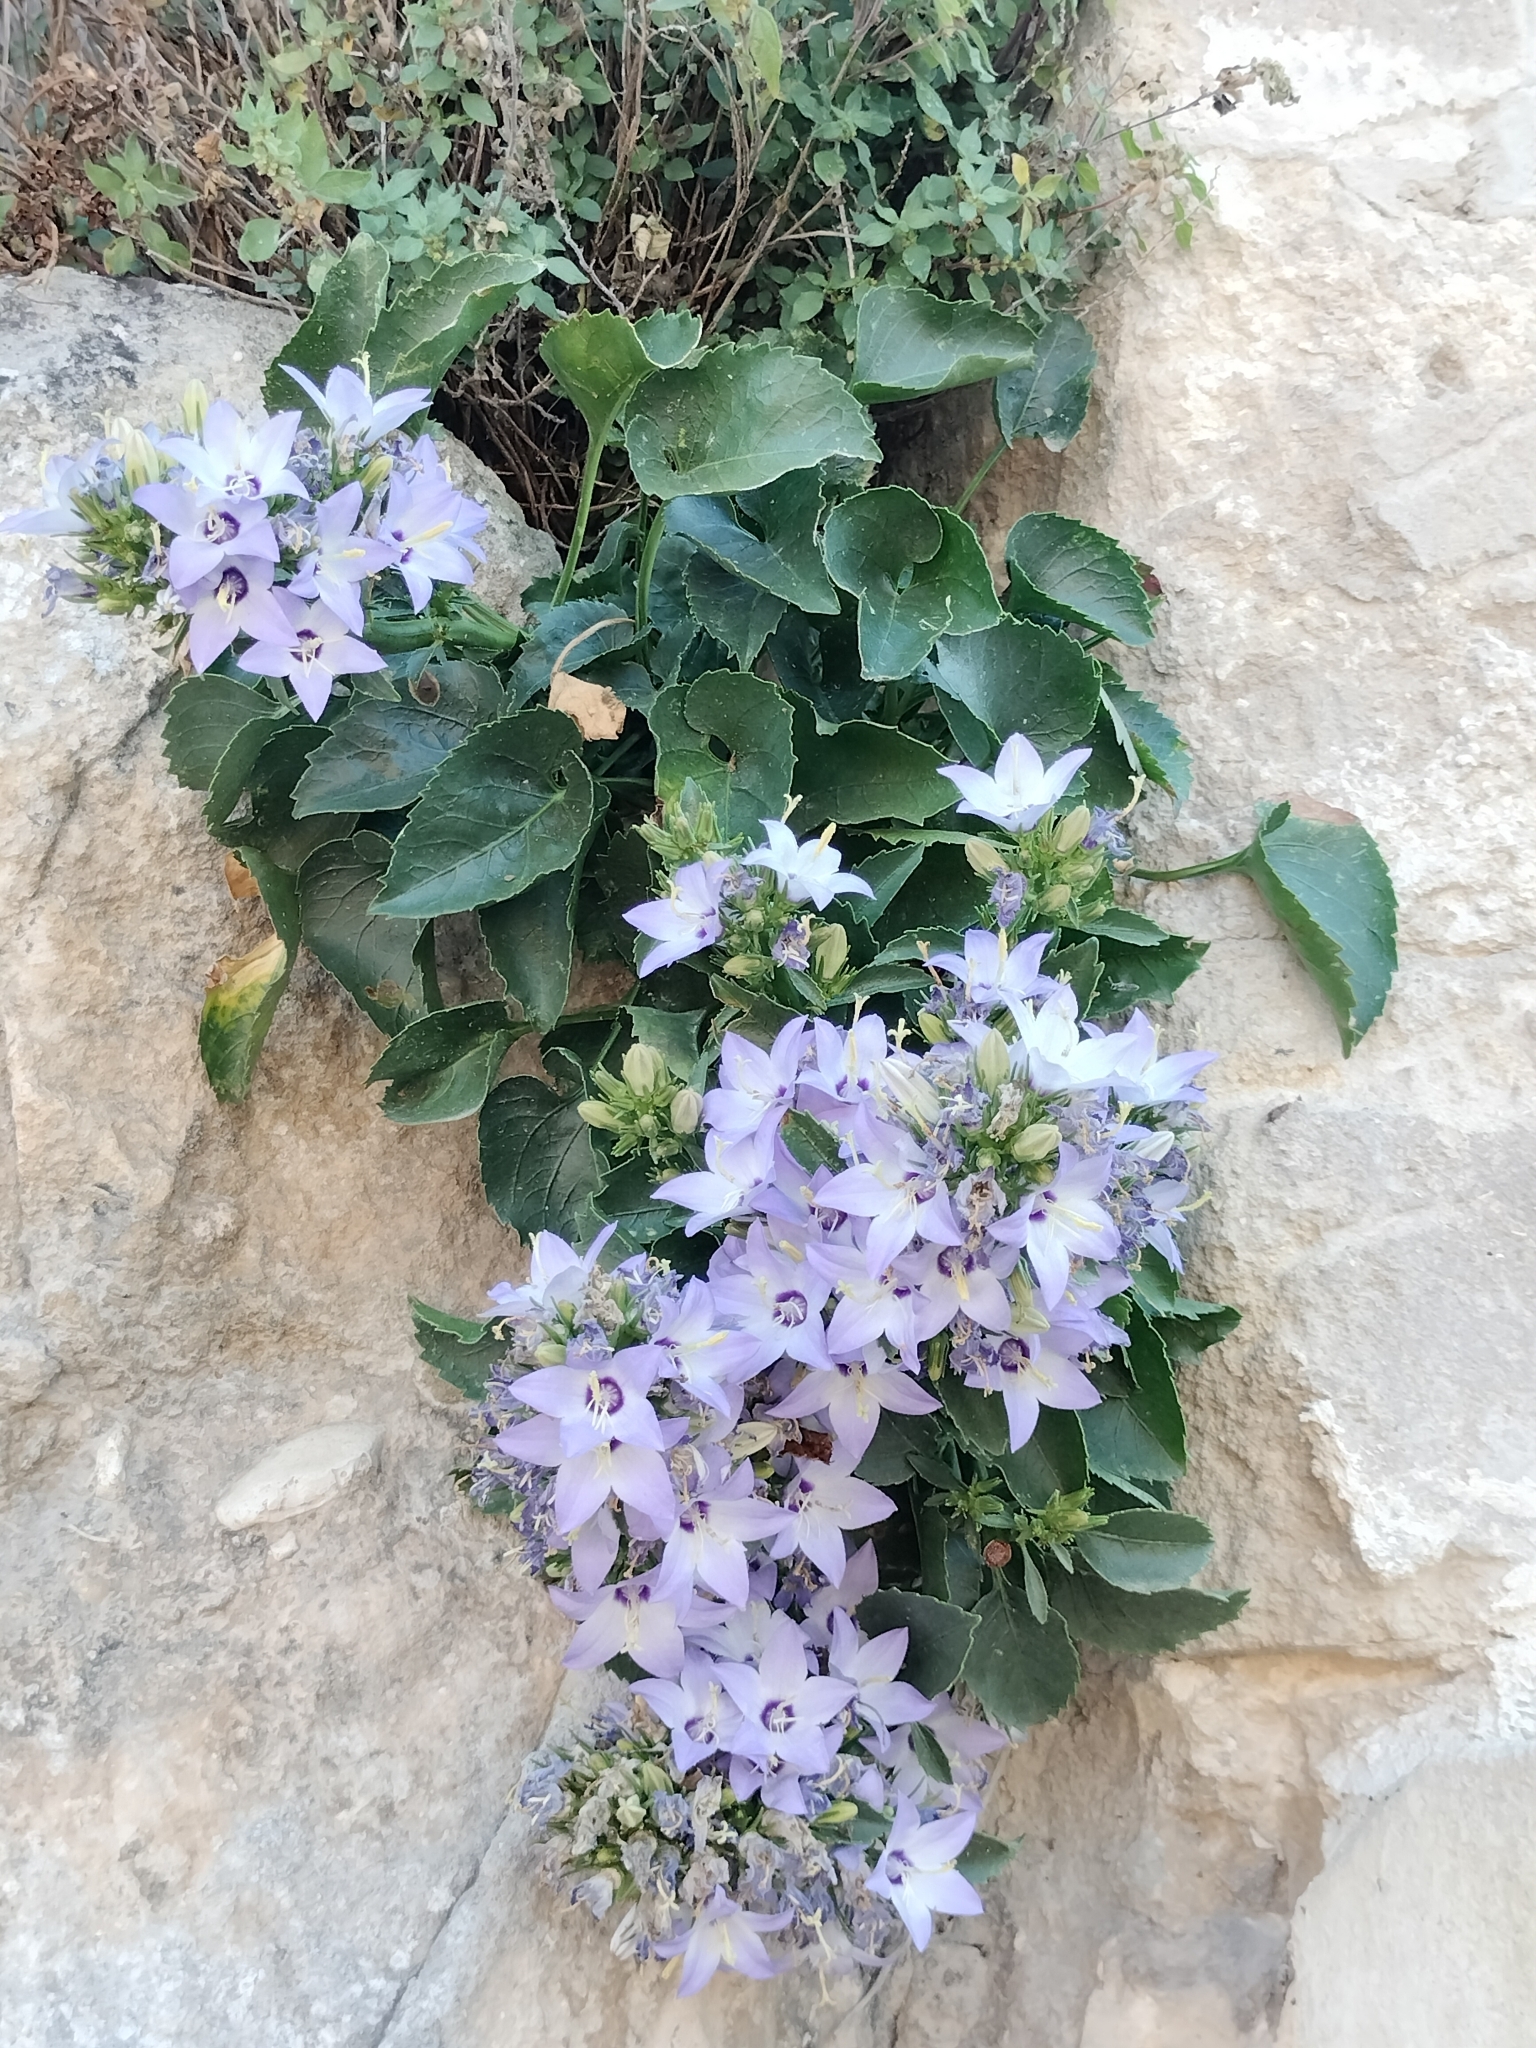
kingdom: Plantae
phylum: Tracheophyta
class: Magnoliopsida
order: Asterales
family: Campanulaceae
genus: Campanula
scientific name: Campanula versicolor
